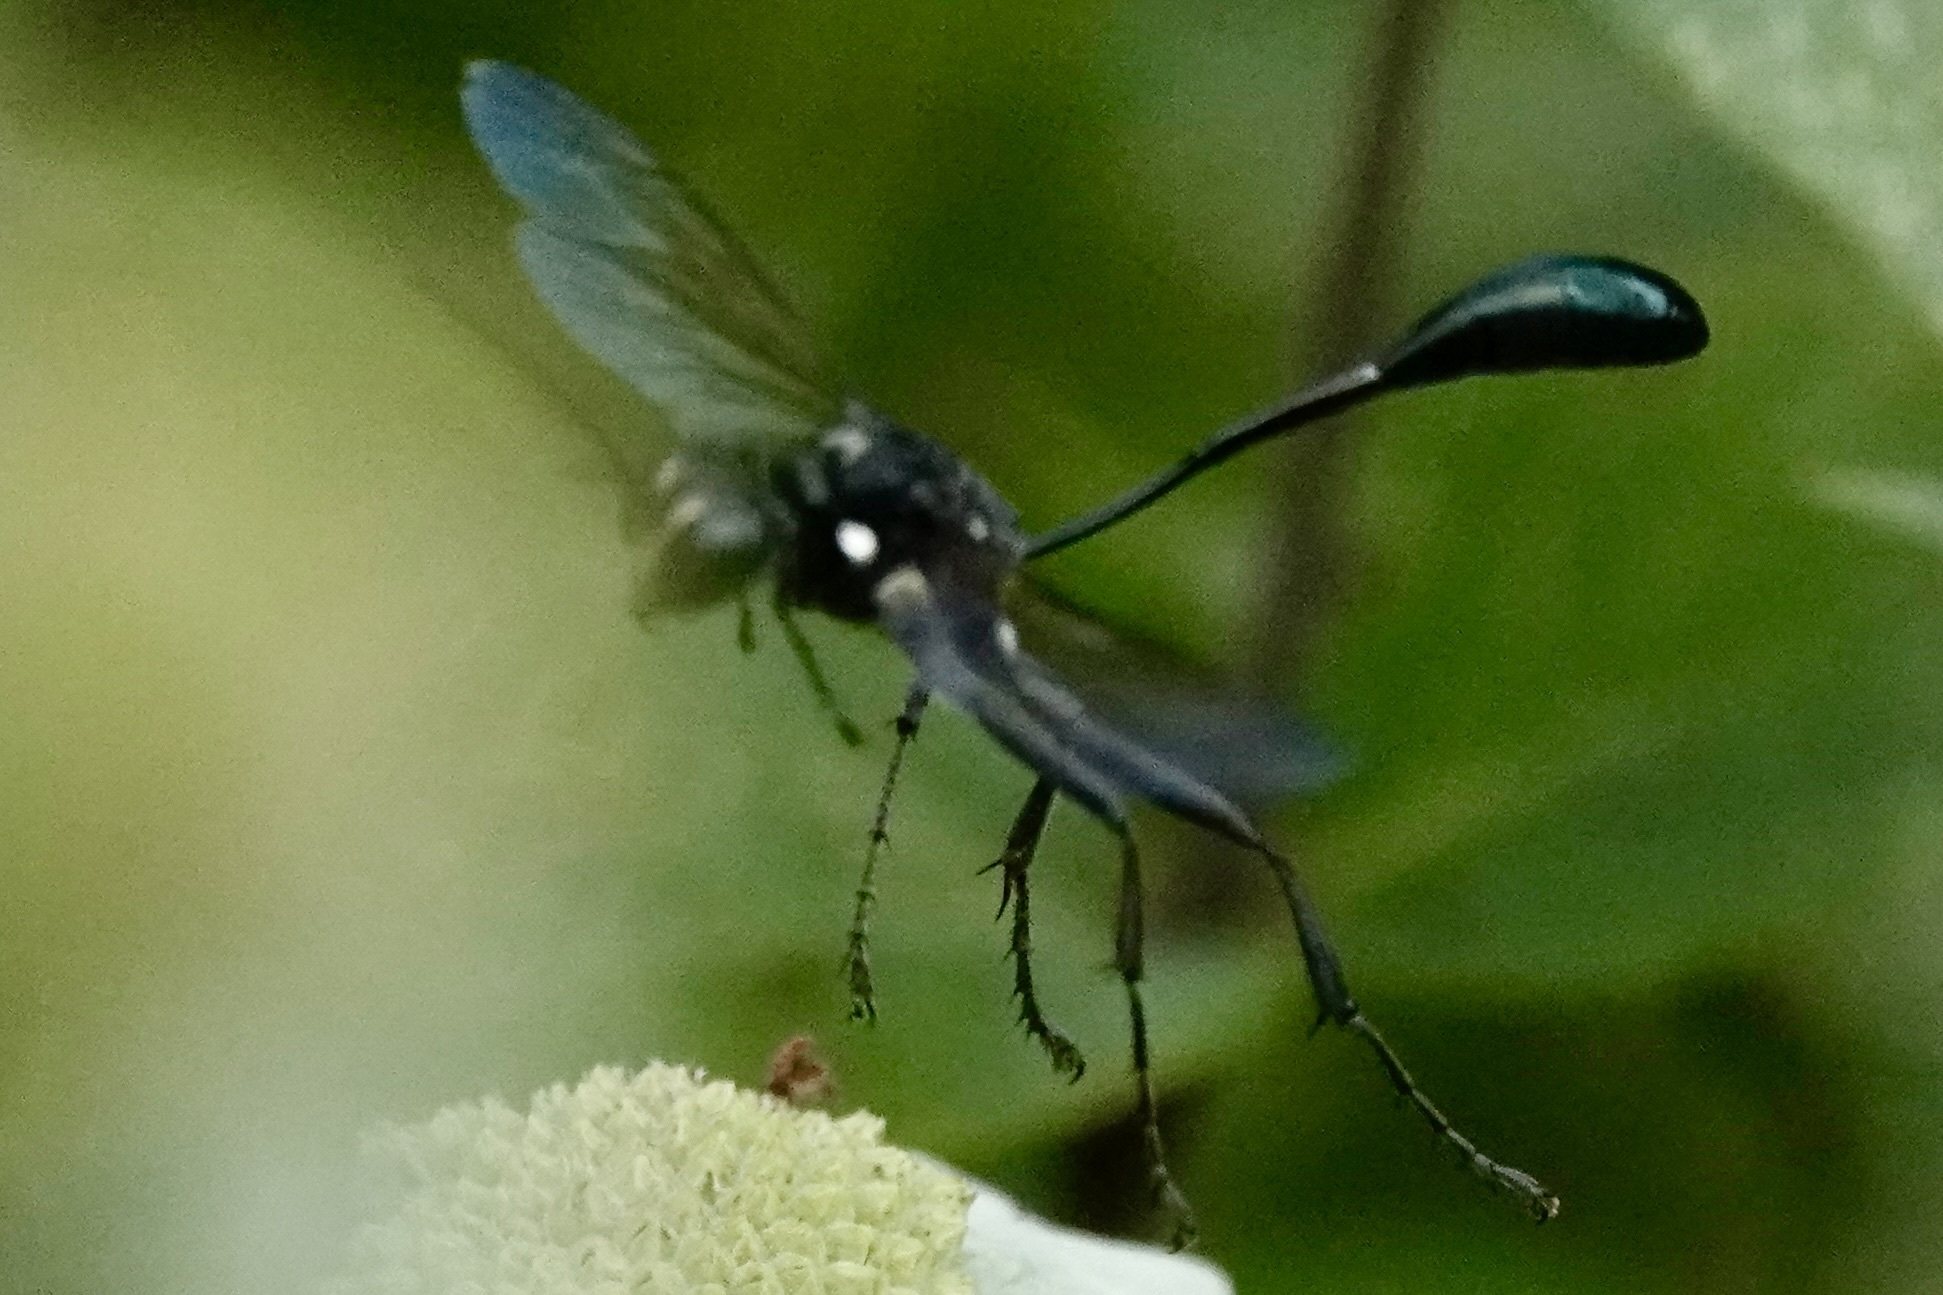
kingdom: Animalia
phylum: Arthropoda
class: Insecta
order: Hymenoptera
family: Sphecidae
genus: Eremnophila
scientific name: Eremnophila aureonotata
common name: Gold-marked thread-waisted wasp
